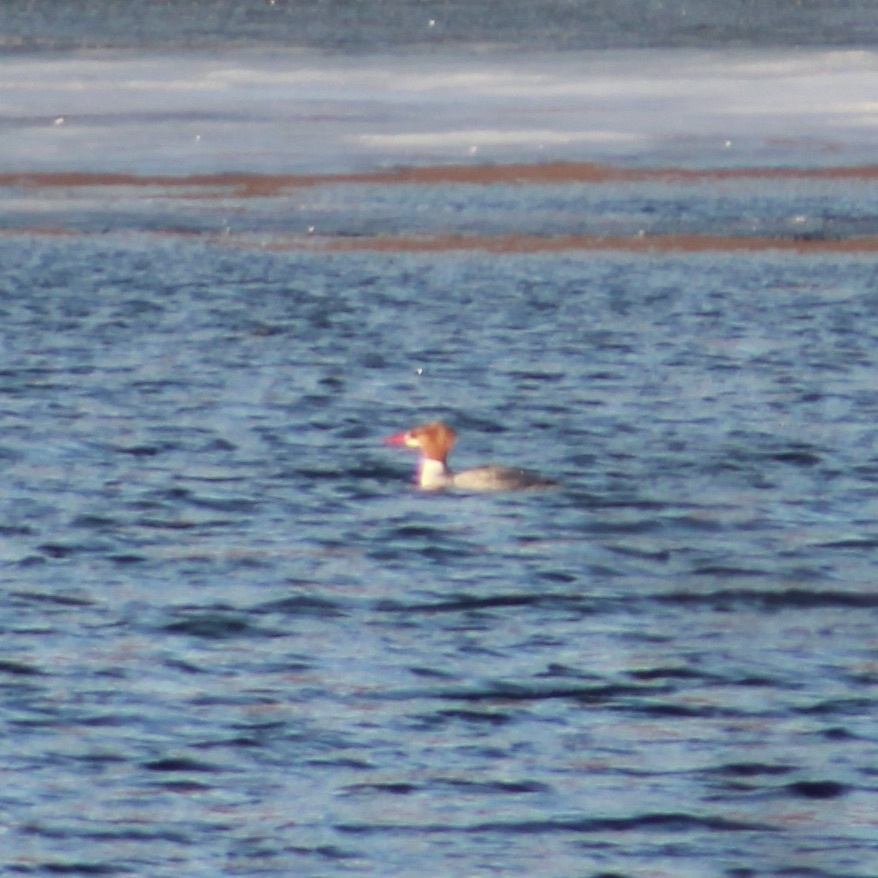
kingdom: Animalia
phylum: Chordata
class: Aves
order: Anseriformes
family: Anatidae
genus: Mergus
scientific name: Mergus merganser
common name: Common merganser
